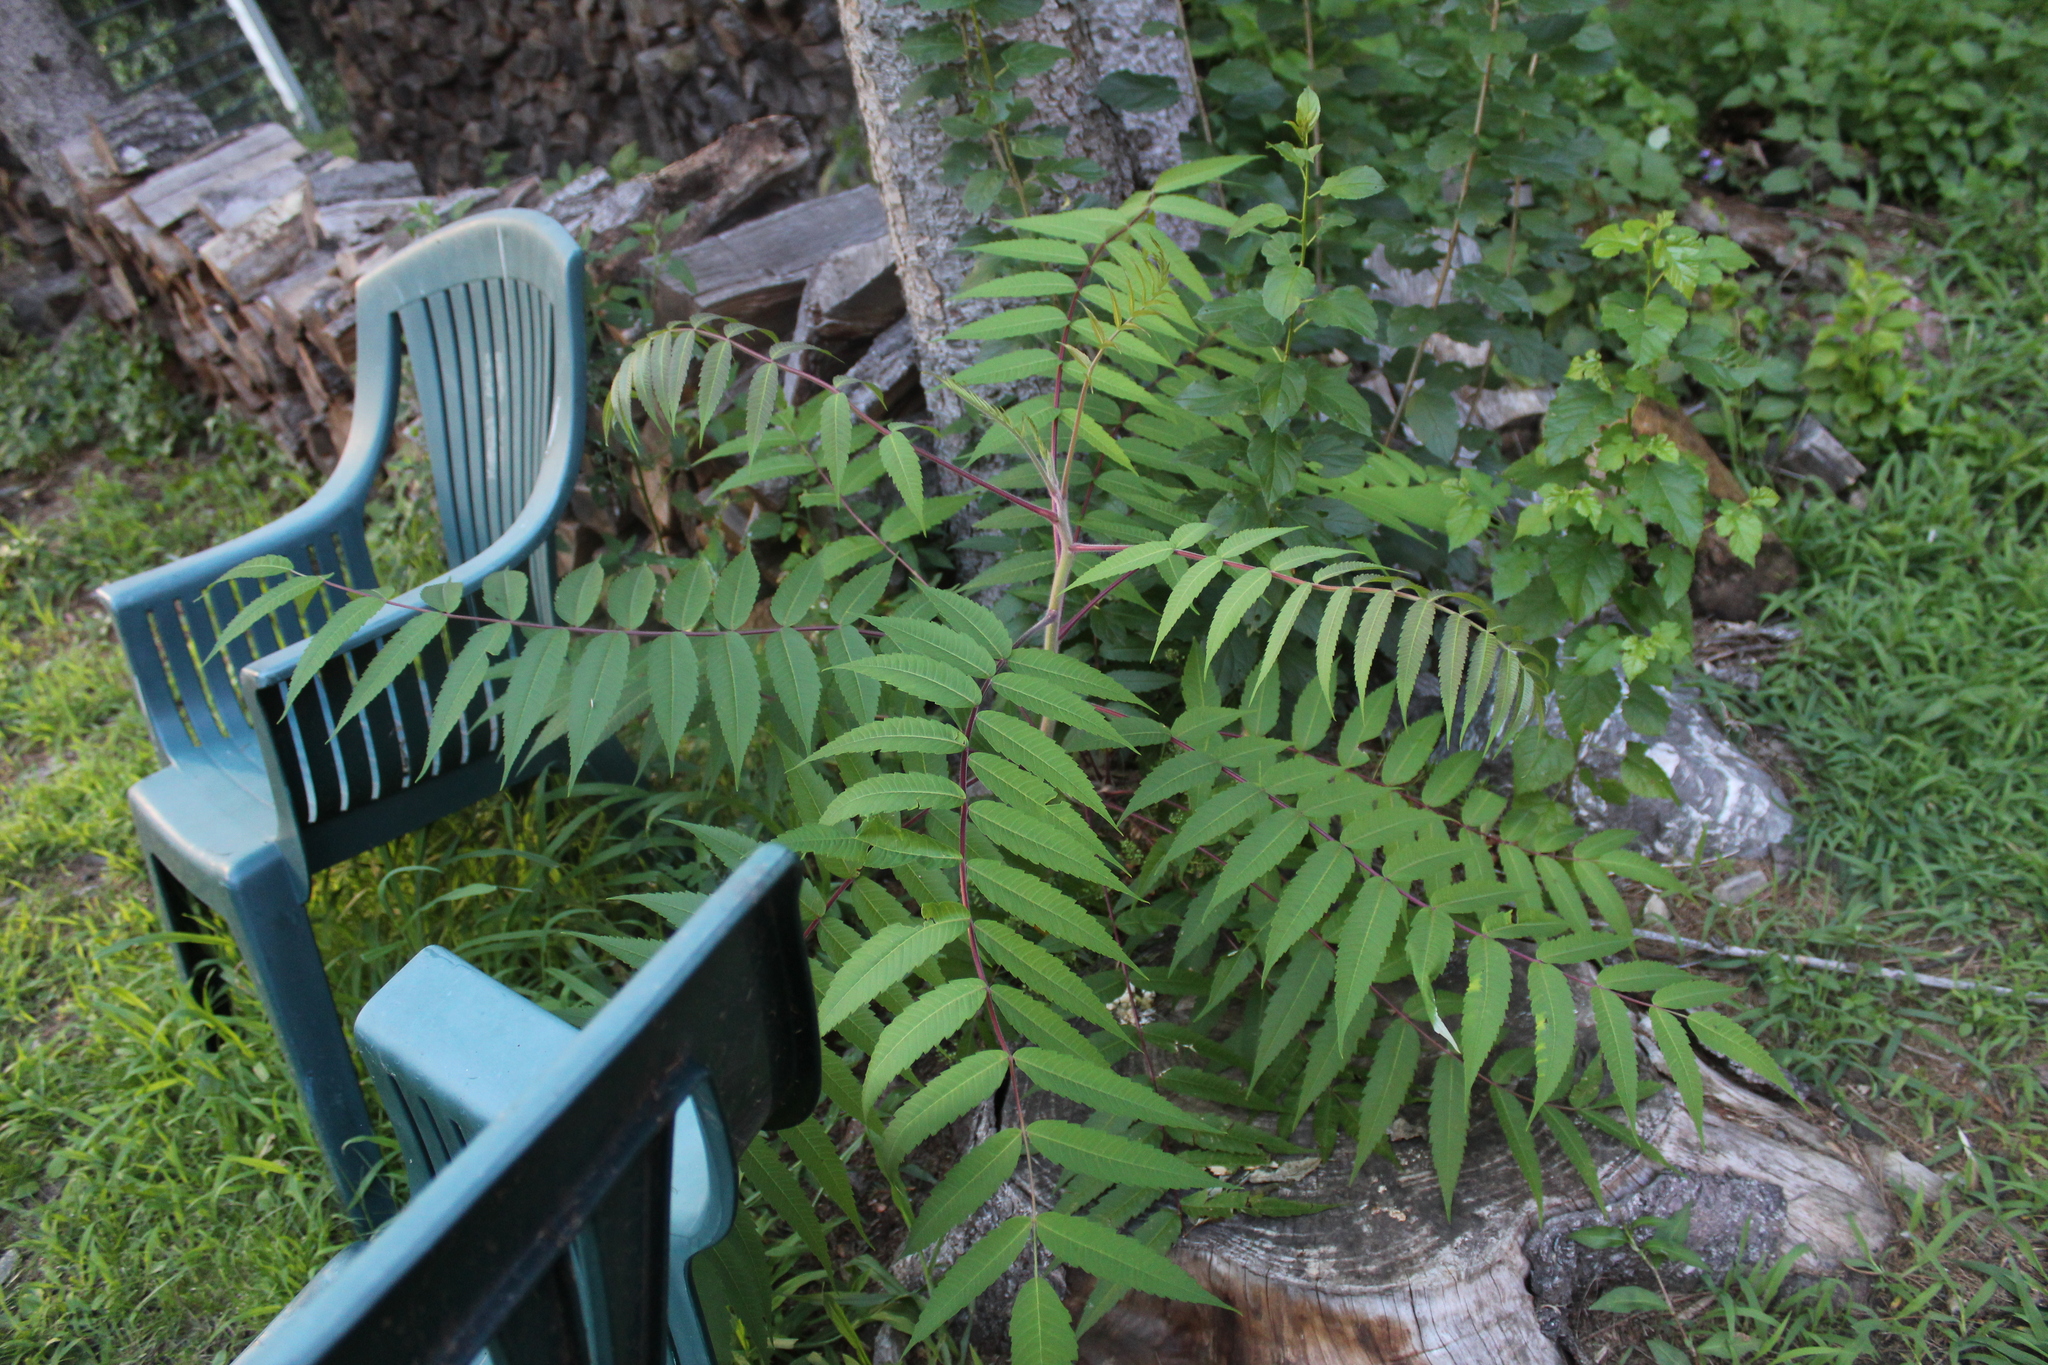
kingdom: Plantae
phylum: Tracheophyta
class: Magnoliopsida
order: Sapindales
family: Anacardiaceae
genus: Rhus
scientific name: Rhus typhina
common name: Staghorn sumac
